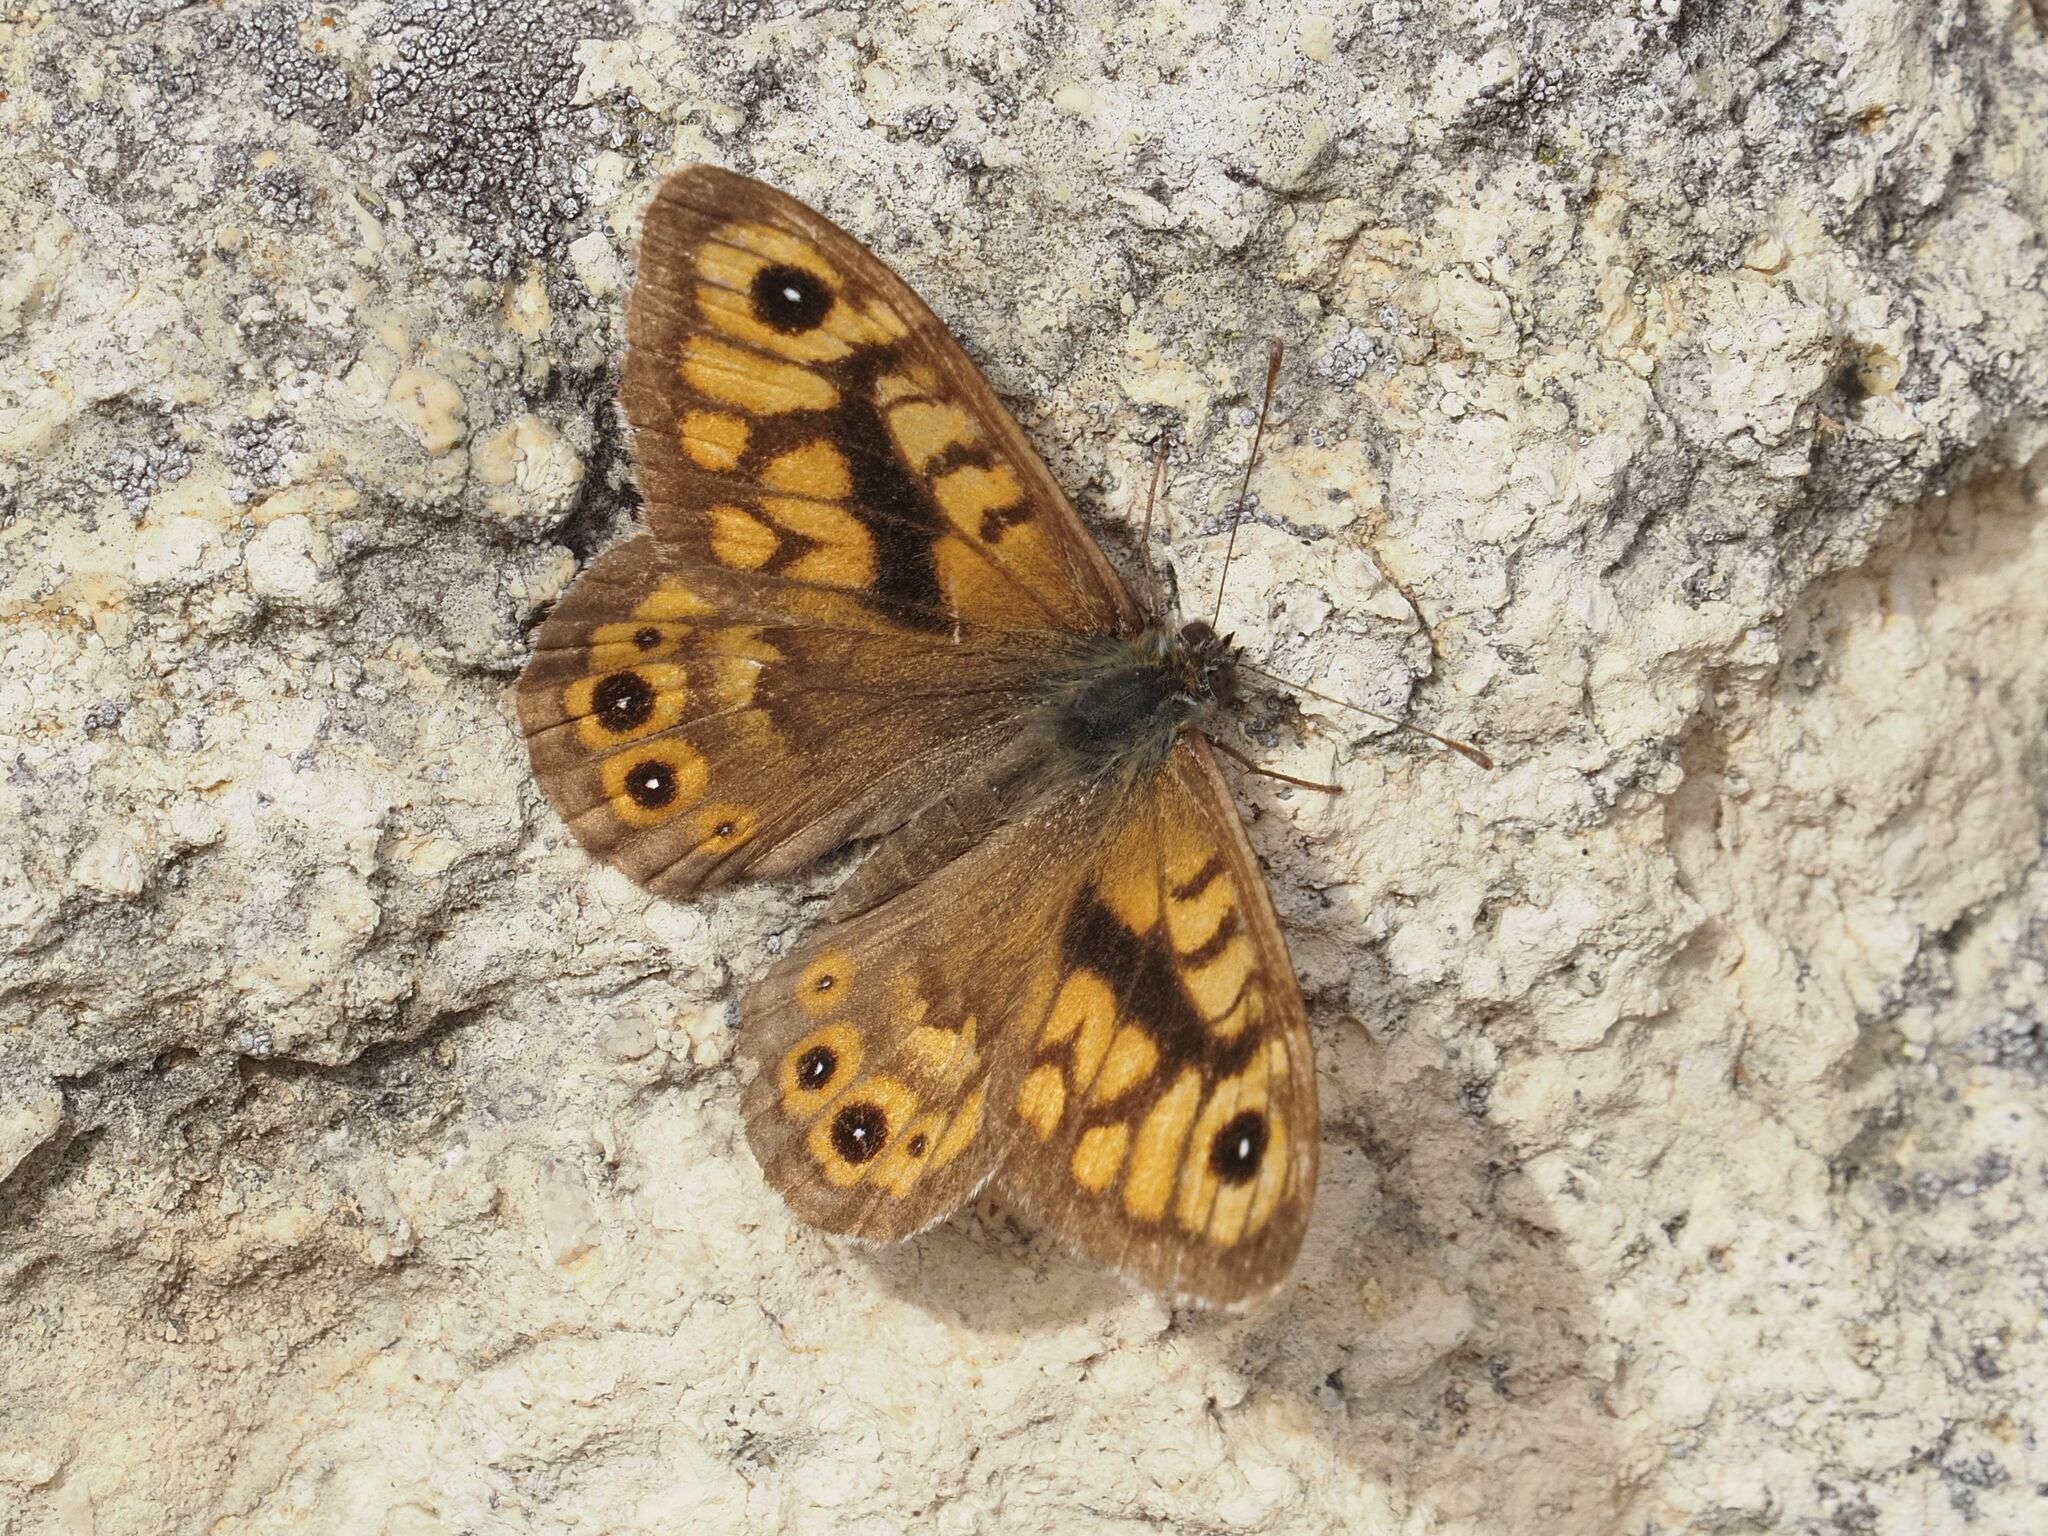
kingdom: Animalia
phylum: Arthropoda
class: Insecta
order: Lepidoptera
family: Nymphalidae
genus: Pararge
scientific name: Pararge Lasiommata megera
